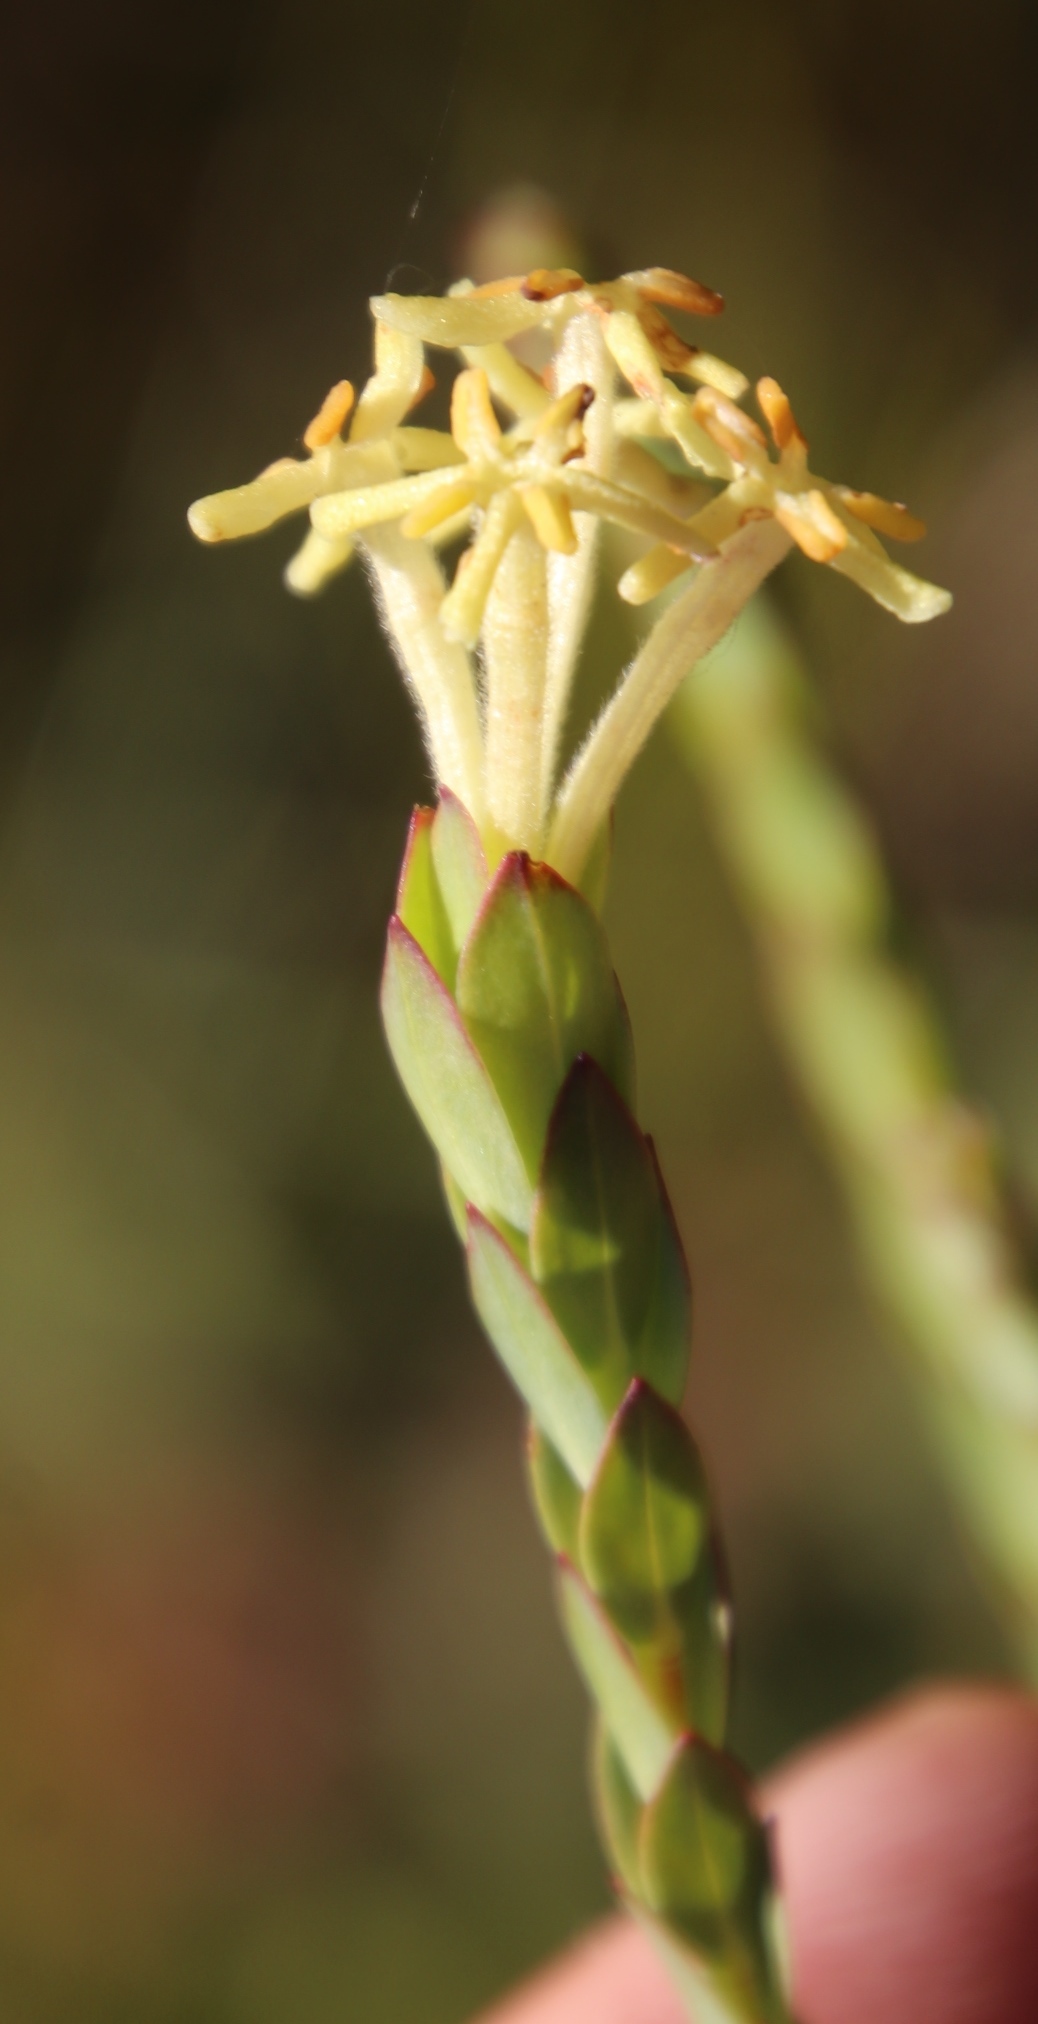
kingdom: Plantae
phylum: Tracheophyta
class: Magnoliopsida
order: Malvales
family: Thymelaeaceae
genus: Gnidia
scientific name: Gnidia oppositifolia
